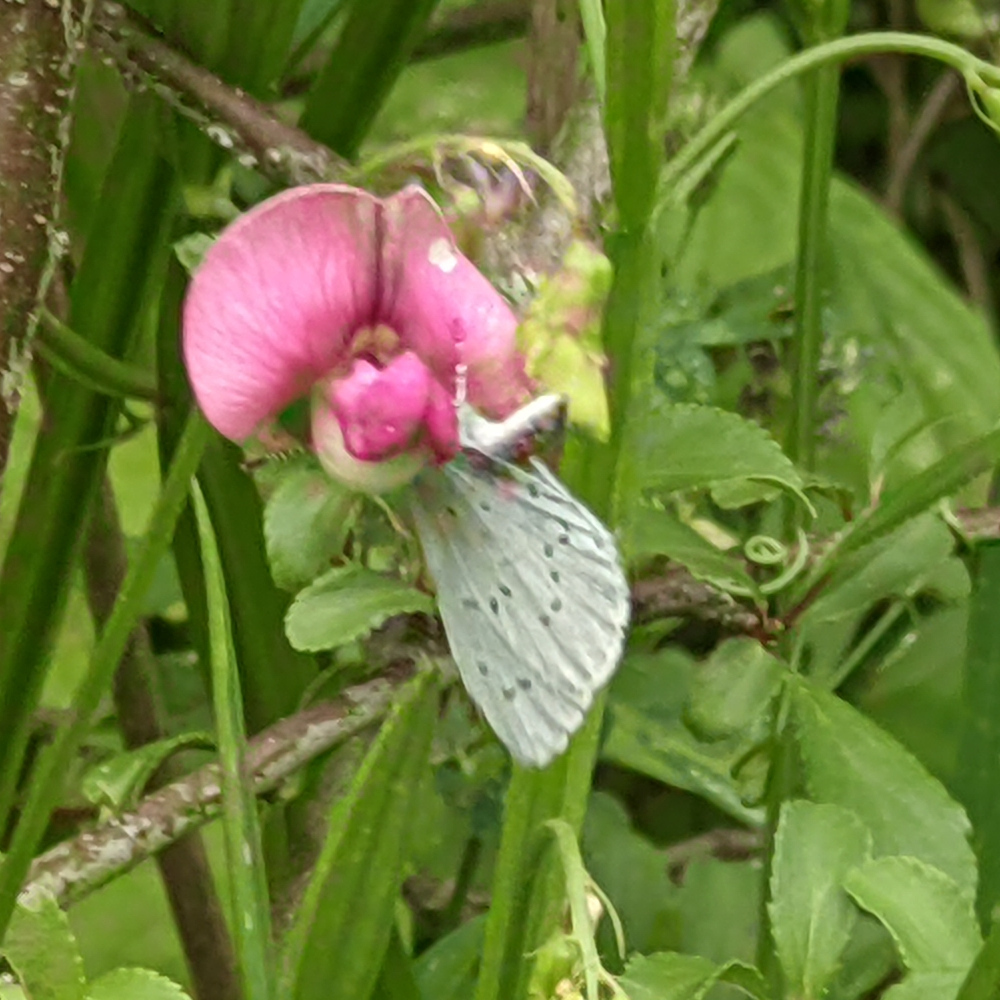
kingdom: Animalia
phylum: Arthropoda
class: Insecta
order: Lepidoptera
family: Lycaenidae
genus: Celastrina
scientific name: Celastrina argiolus
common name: Holly blue
